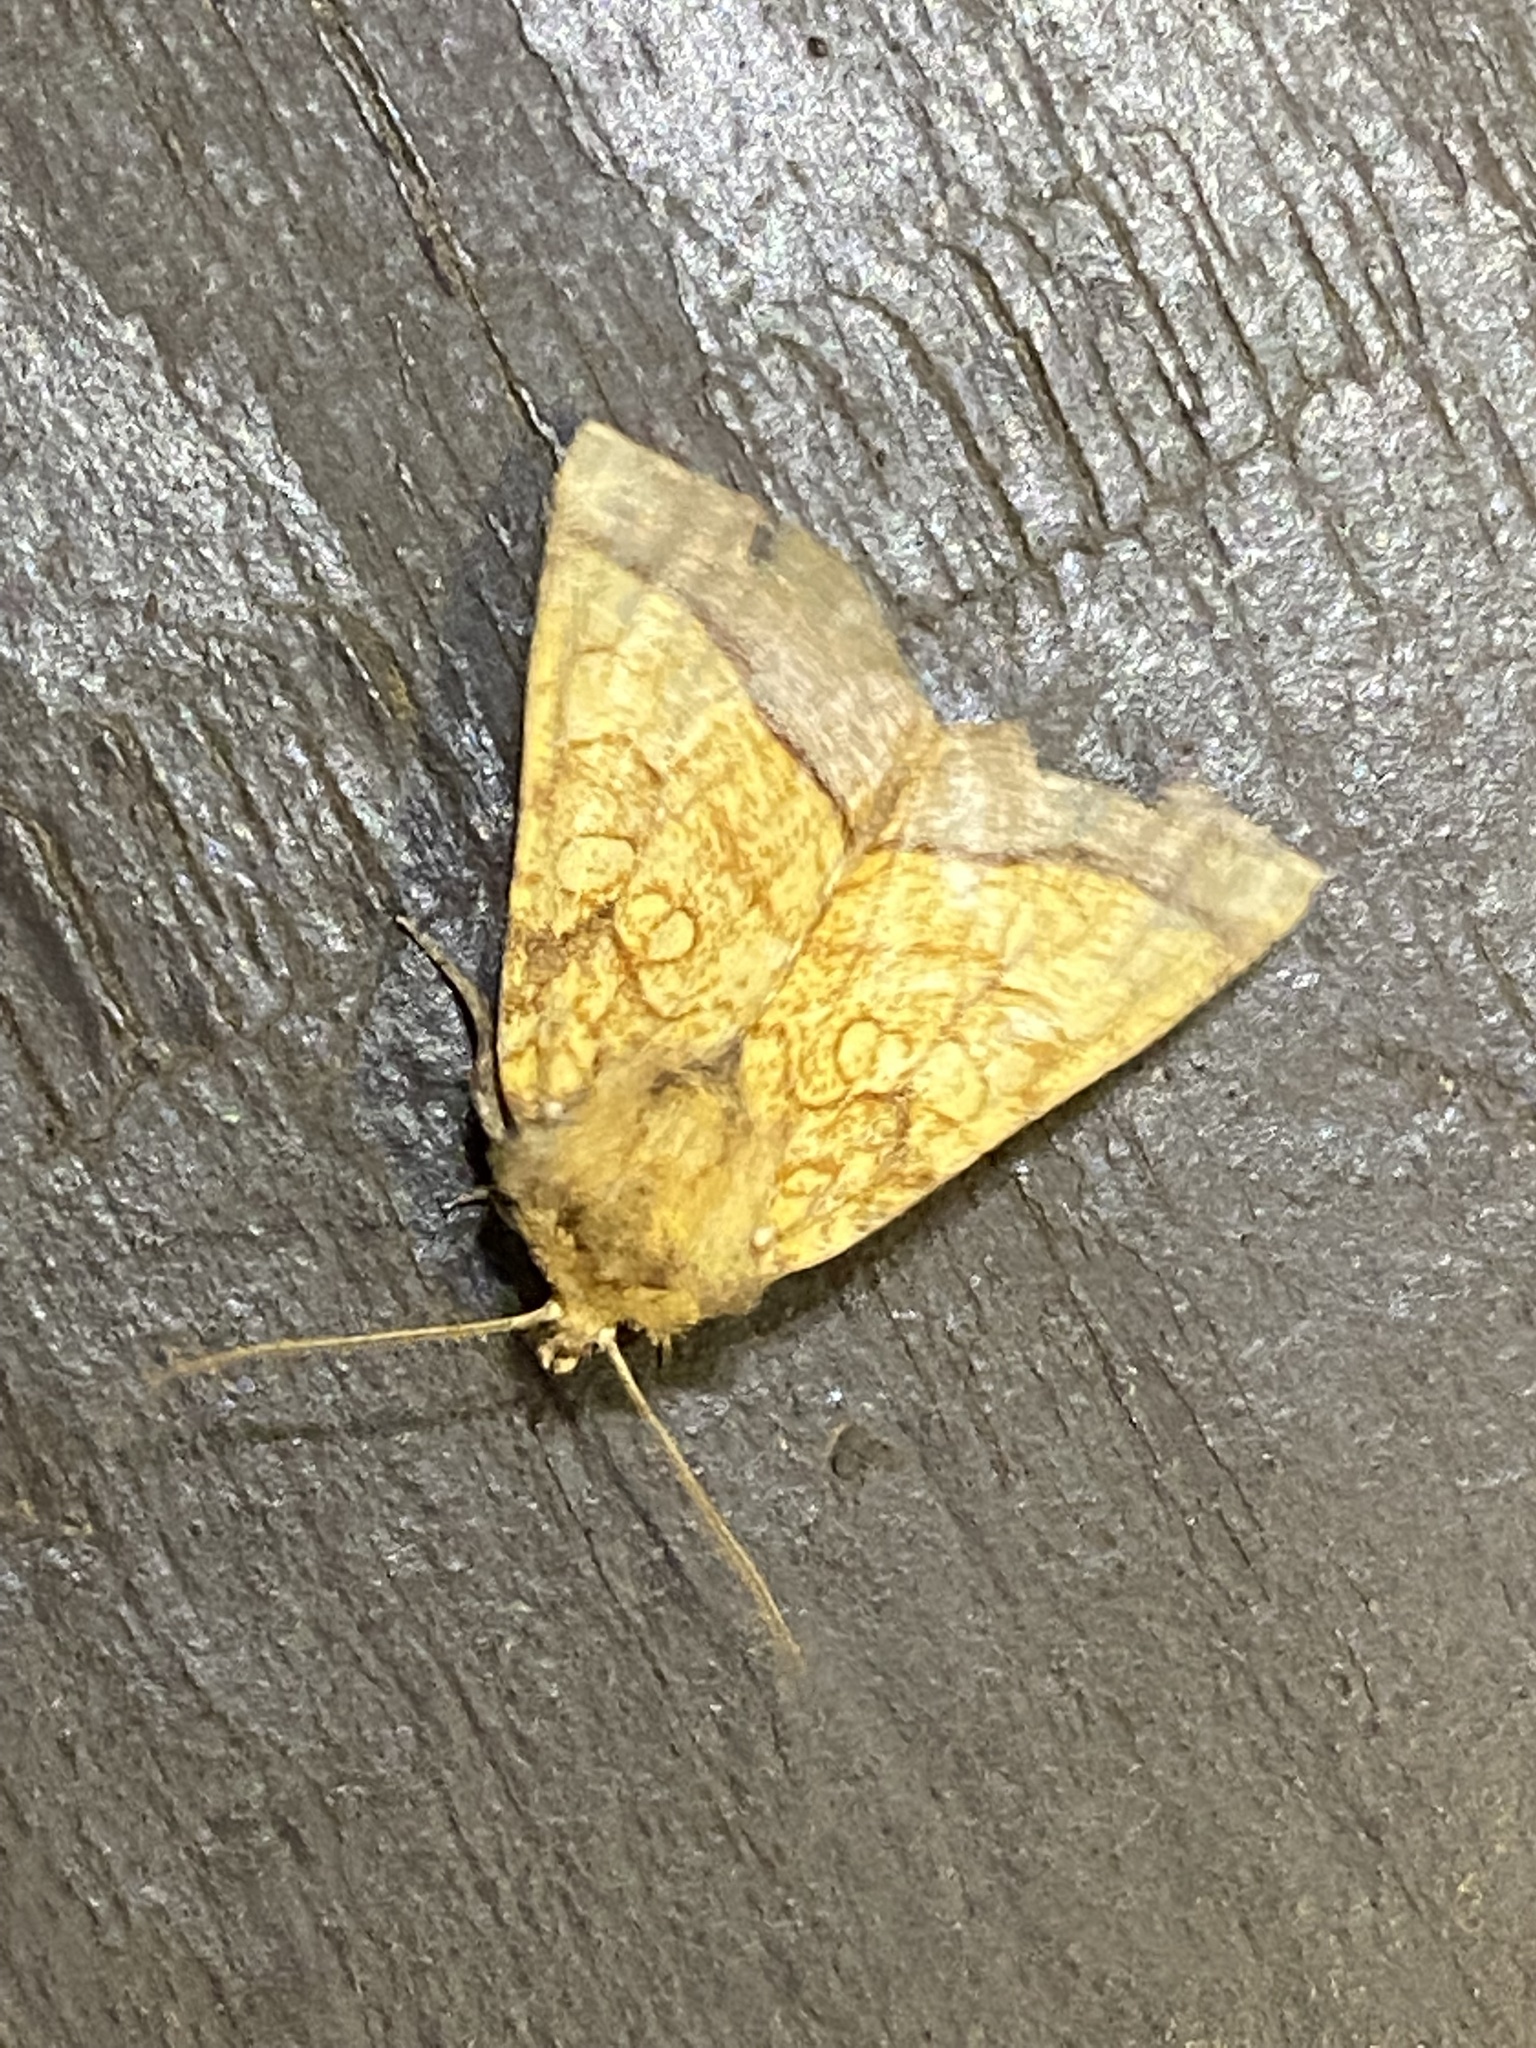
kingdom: Animalia
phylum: Arthropoda
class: Insecta
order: Lepidoptera
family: Noctuidae
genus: Papaipema
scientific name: Papaipema rigida
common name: Rigid sunflower borer moth
